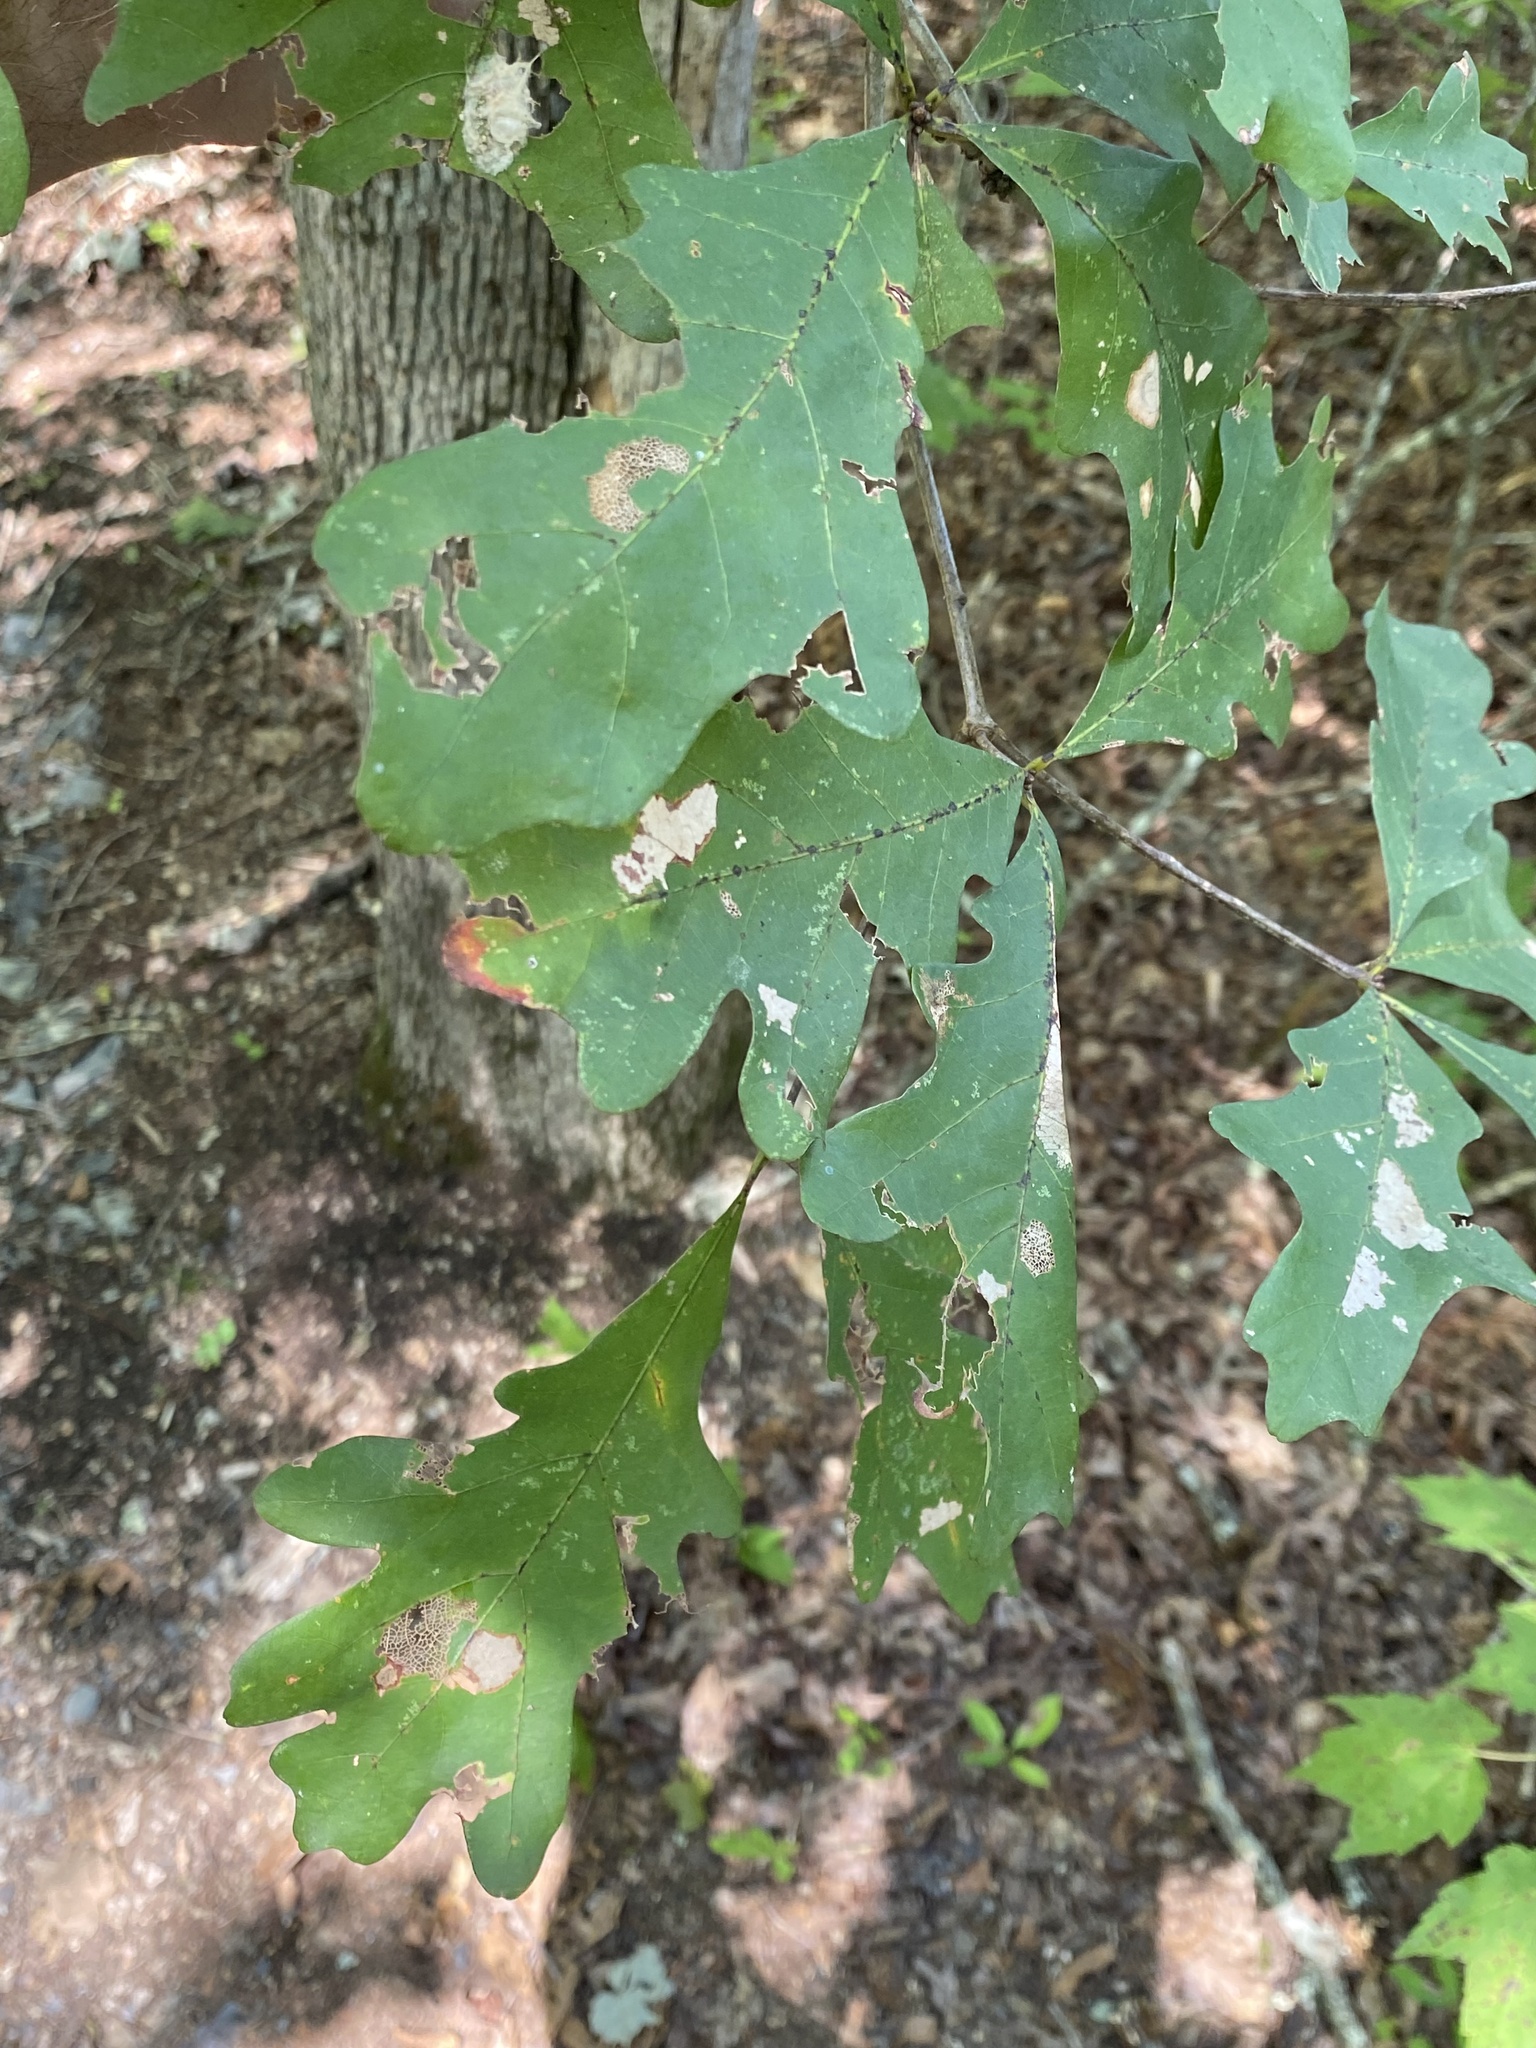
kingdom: Plantae
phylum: Tracheophyta
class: Magnoliopsida
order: Fagales
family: Fagaceae
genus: Quercus
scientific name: Quercus alba
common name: White oak
